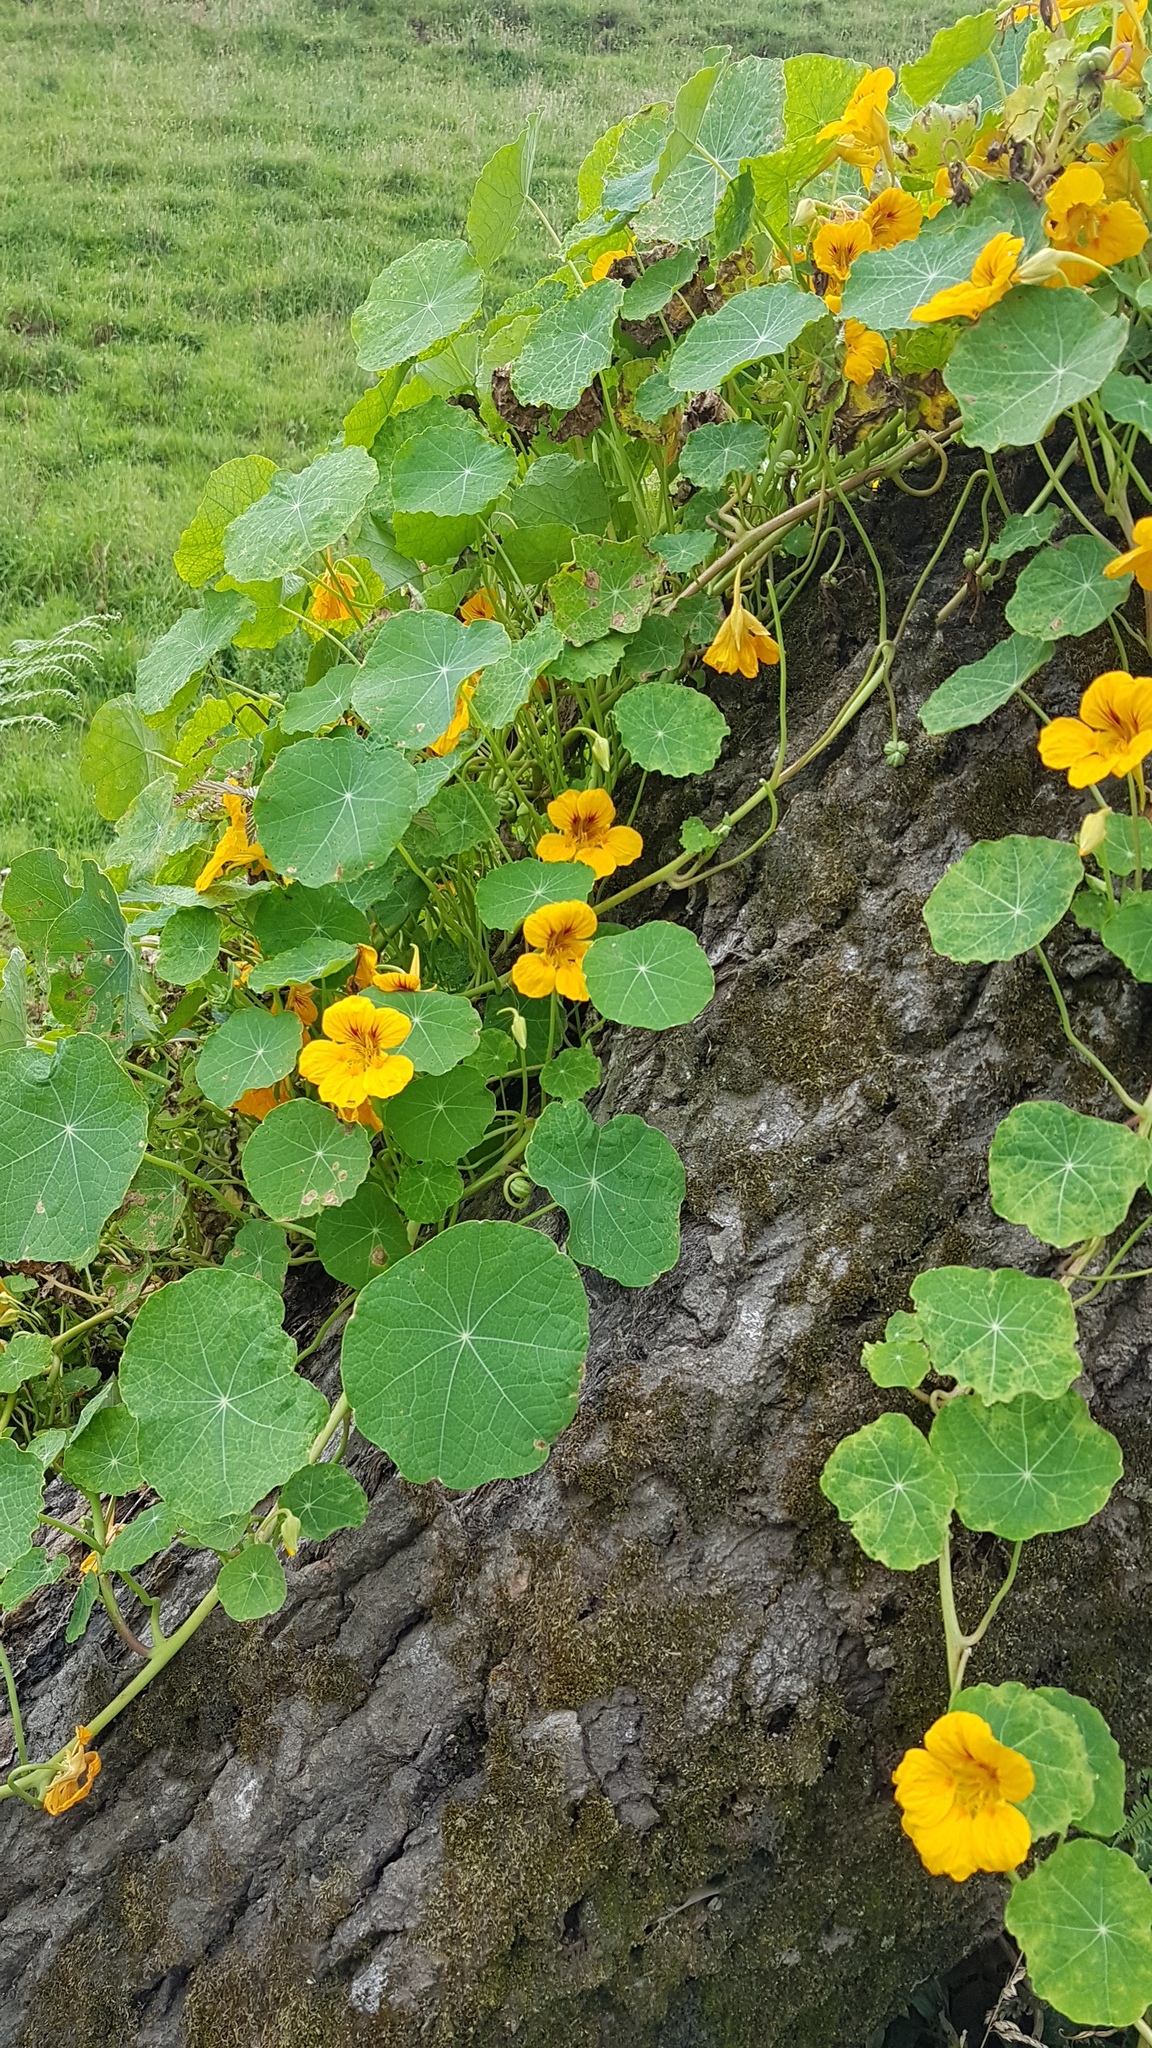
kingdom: Plantae
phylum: Tracheophyta
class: Magnoliopsida
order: Brassicales
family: Tropaeolaceae
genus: Tropaeolum
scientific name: Tropaeolum majus
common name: Nasturtium
